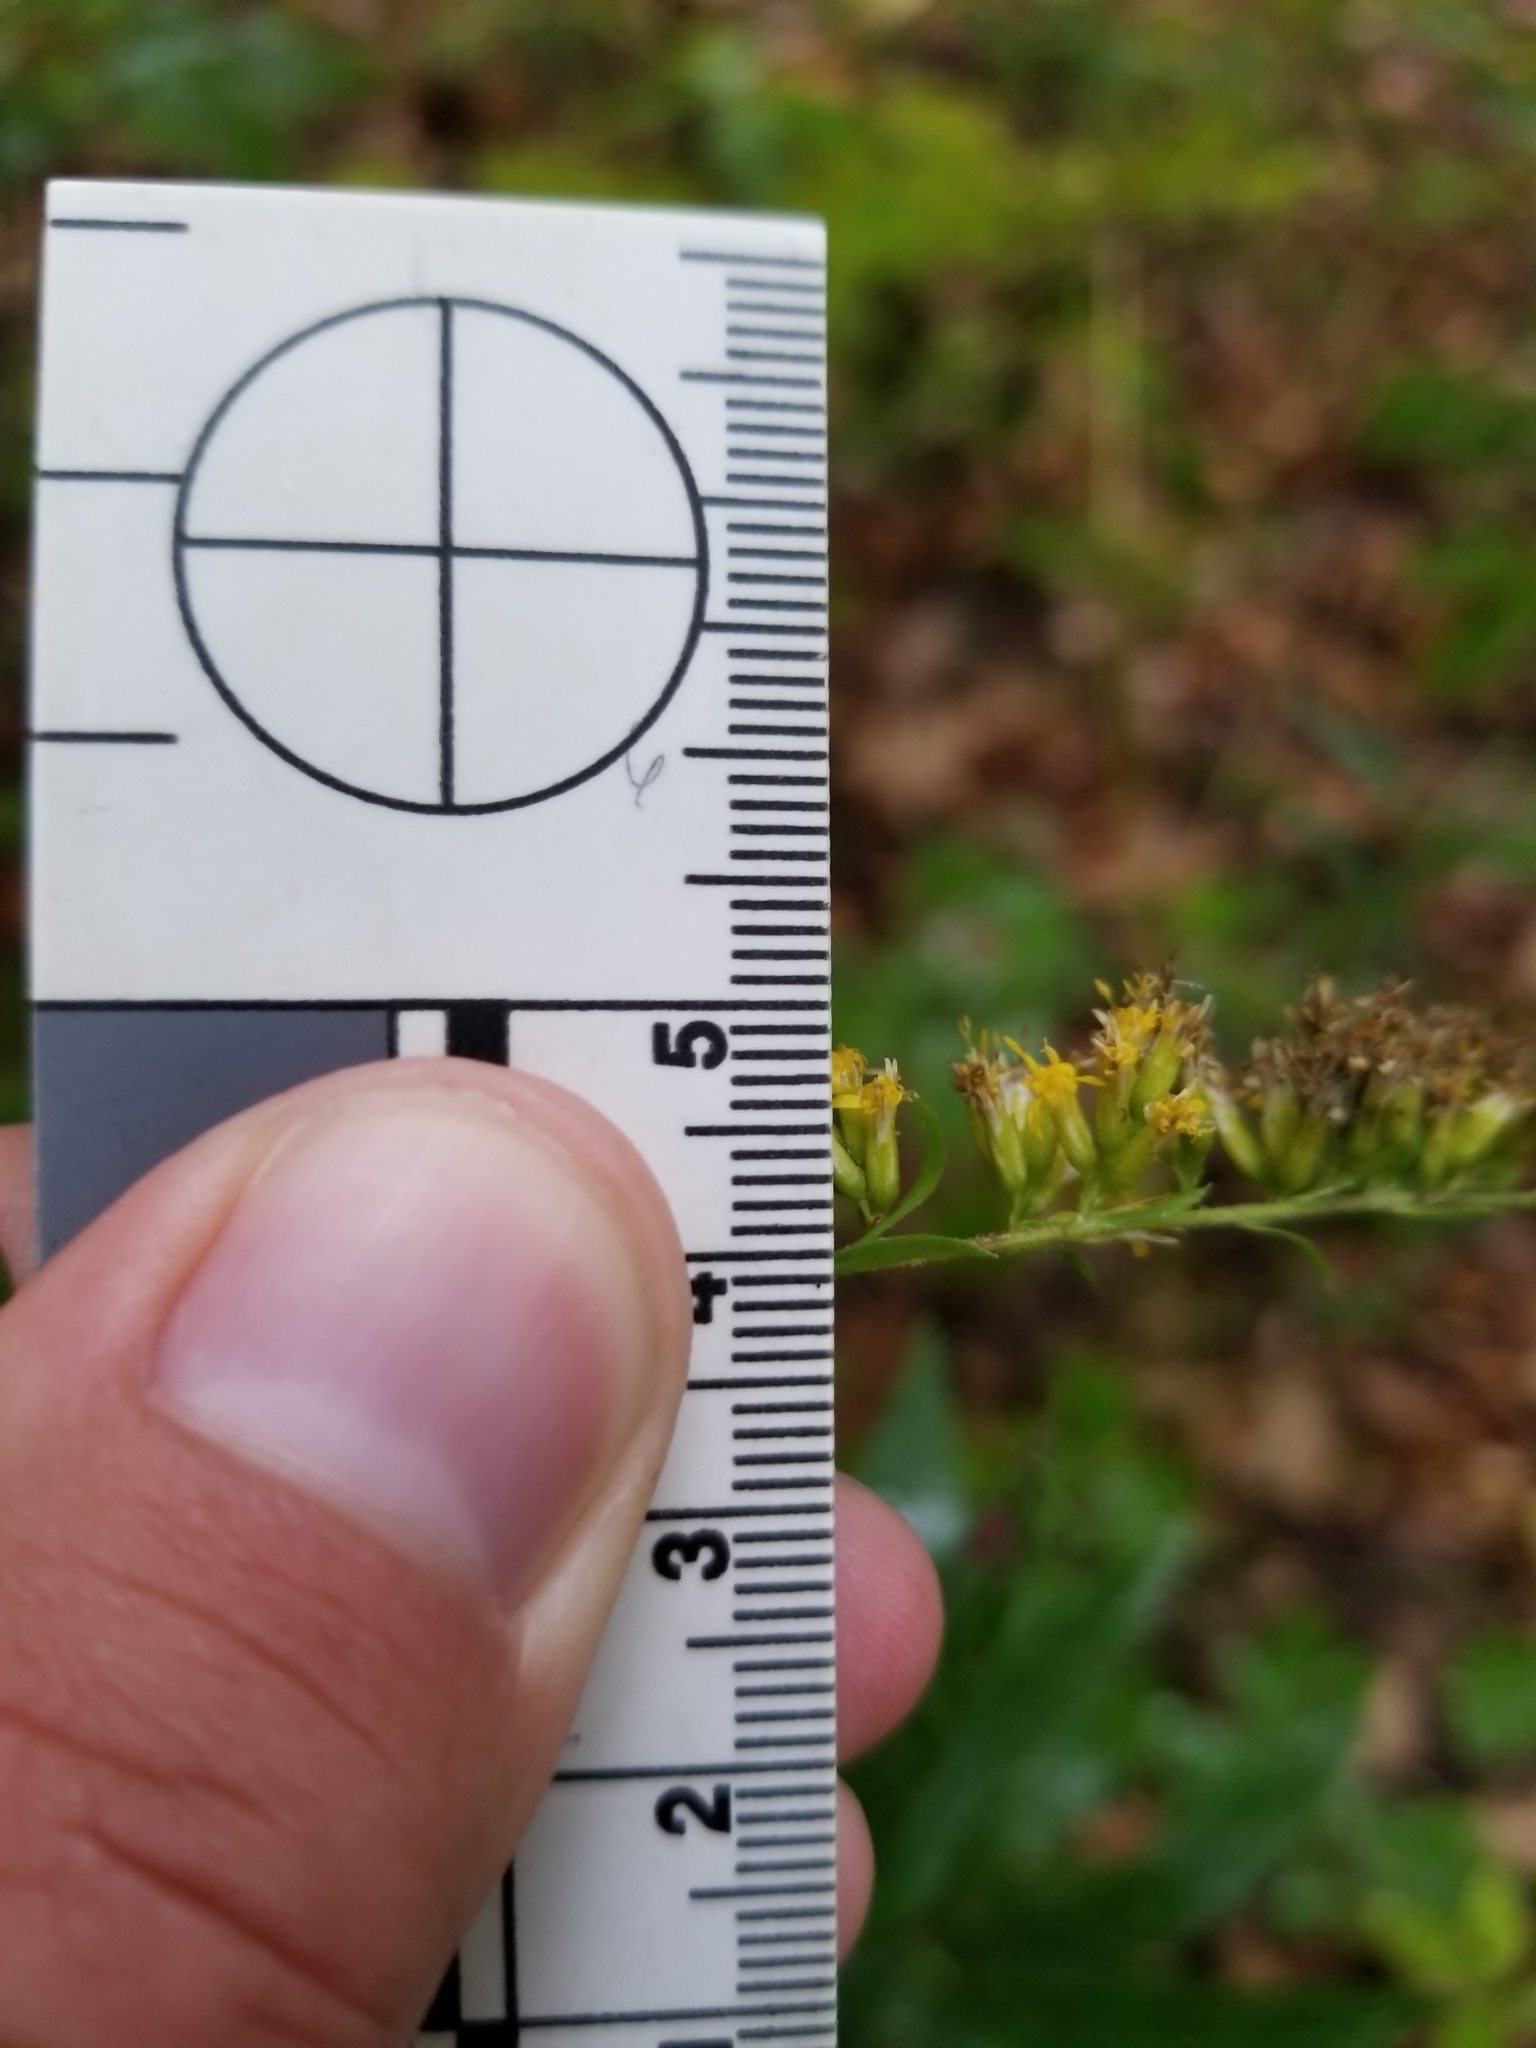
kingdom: Plantae
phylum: Tracheophyta
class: Magnoliopsida
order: Asterales
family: Asteraceae
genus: Solidago
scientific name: Solidago ulmifolia
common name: Elm-leaf goldenrod
